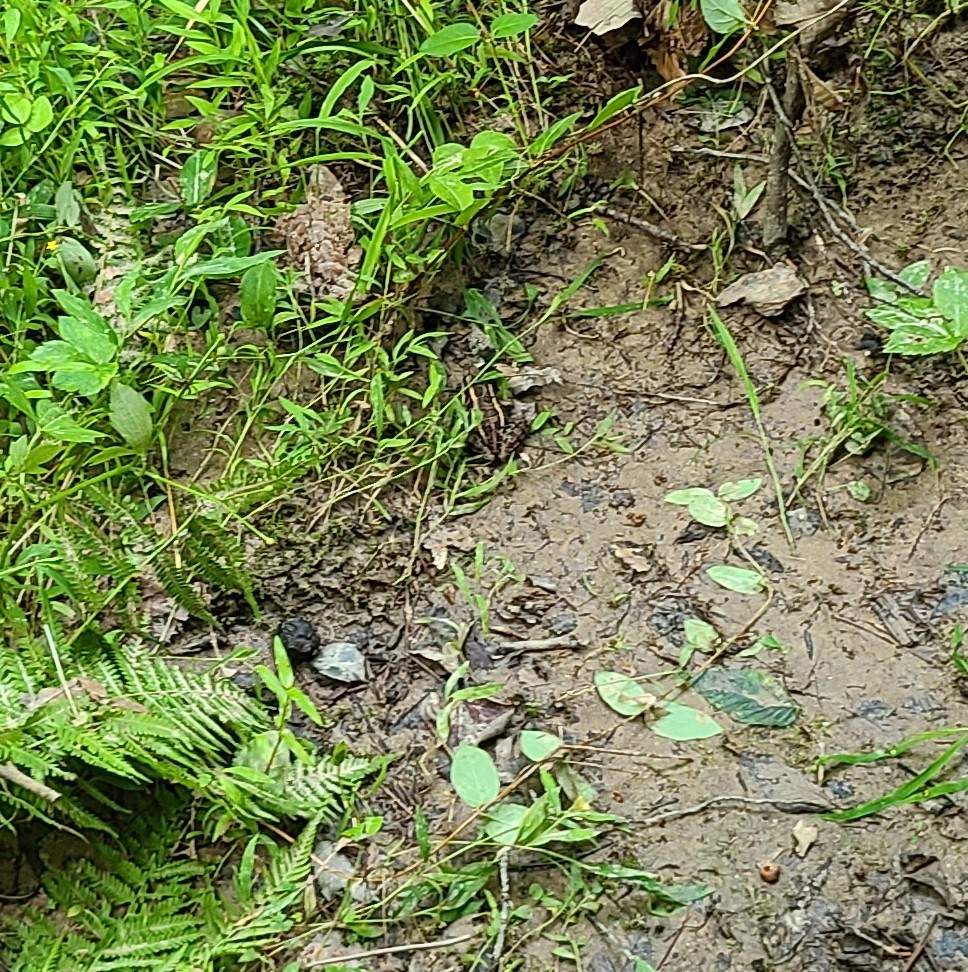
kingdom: Animalia
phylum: Chordata
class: Amphibia
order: Anura
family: Ranidae
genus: Lithobates
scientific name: Lithobates palustris
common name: Pickerel frog
